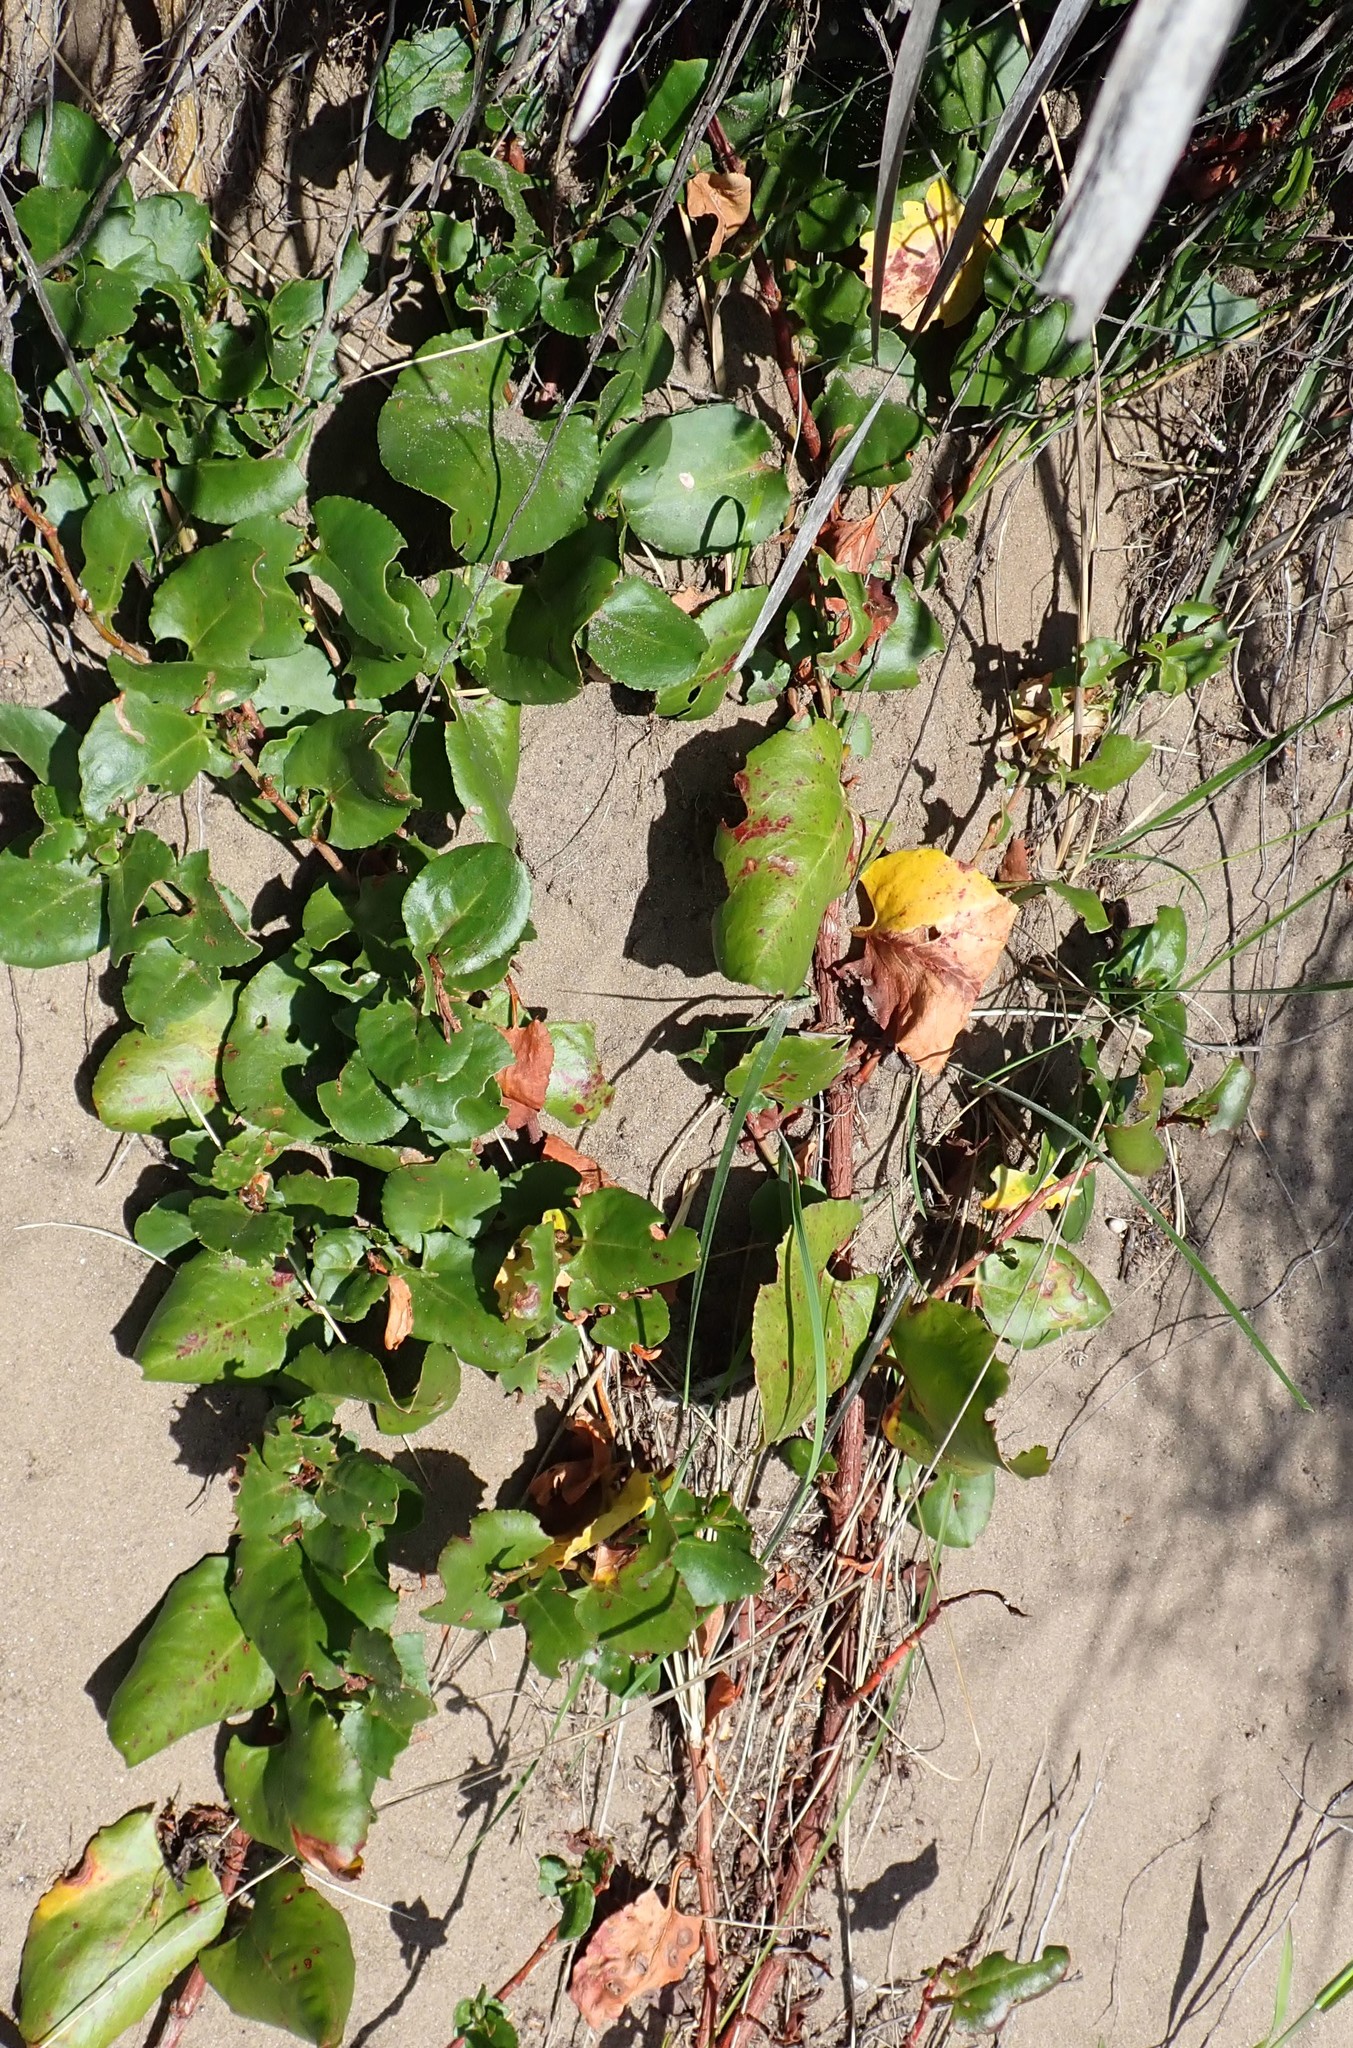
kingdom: Plantae
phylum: Tracheophyta
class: Magnoliopsida
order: Caryophyllales
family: Polygonaceae
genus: Muehlenbeckia
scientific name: Muehlenbeckia adpressa
